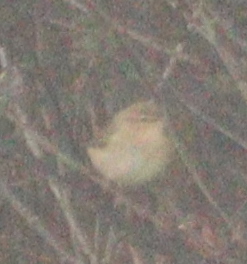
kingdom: Animalia
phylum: Chordata
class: Aves
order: Passeriformes
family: Phylloscopidae
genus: Phylloscopus
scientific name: Phylloscopus collybita
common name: Common chiffchaff
